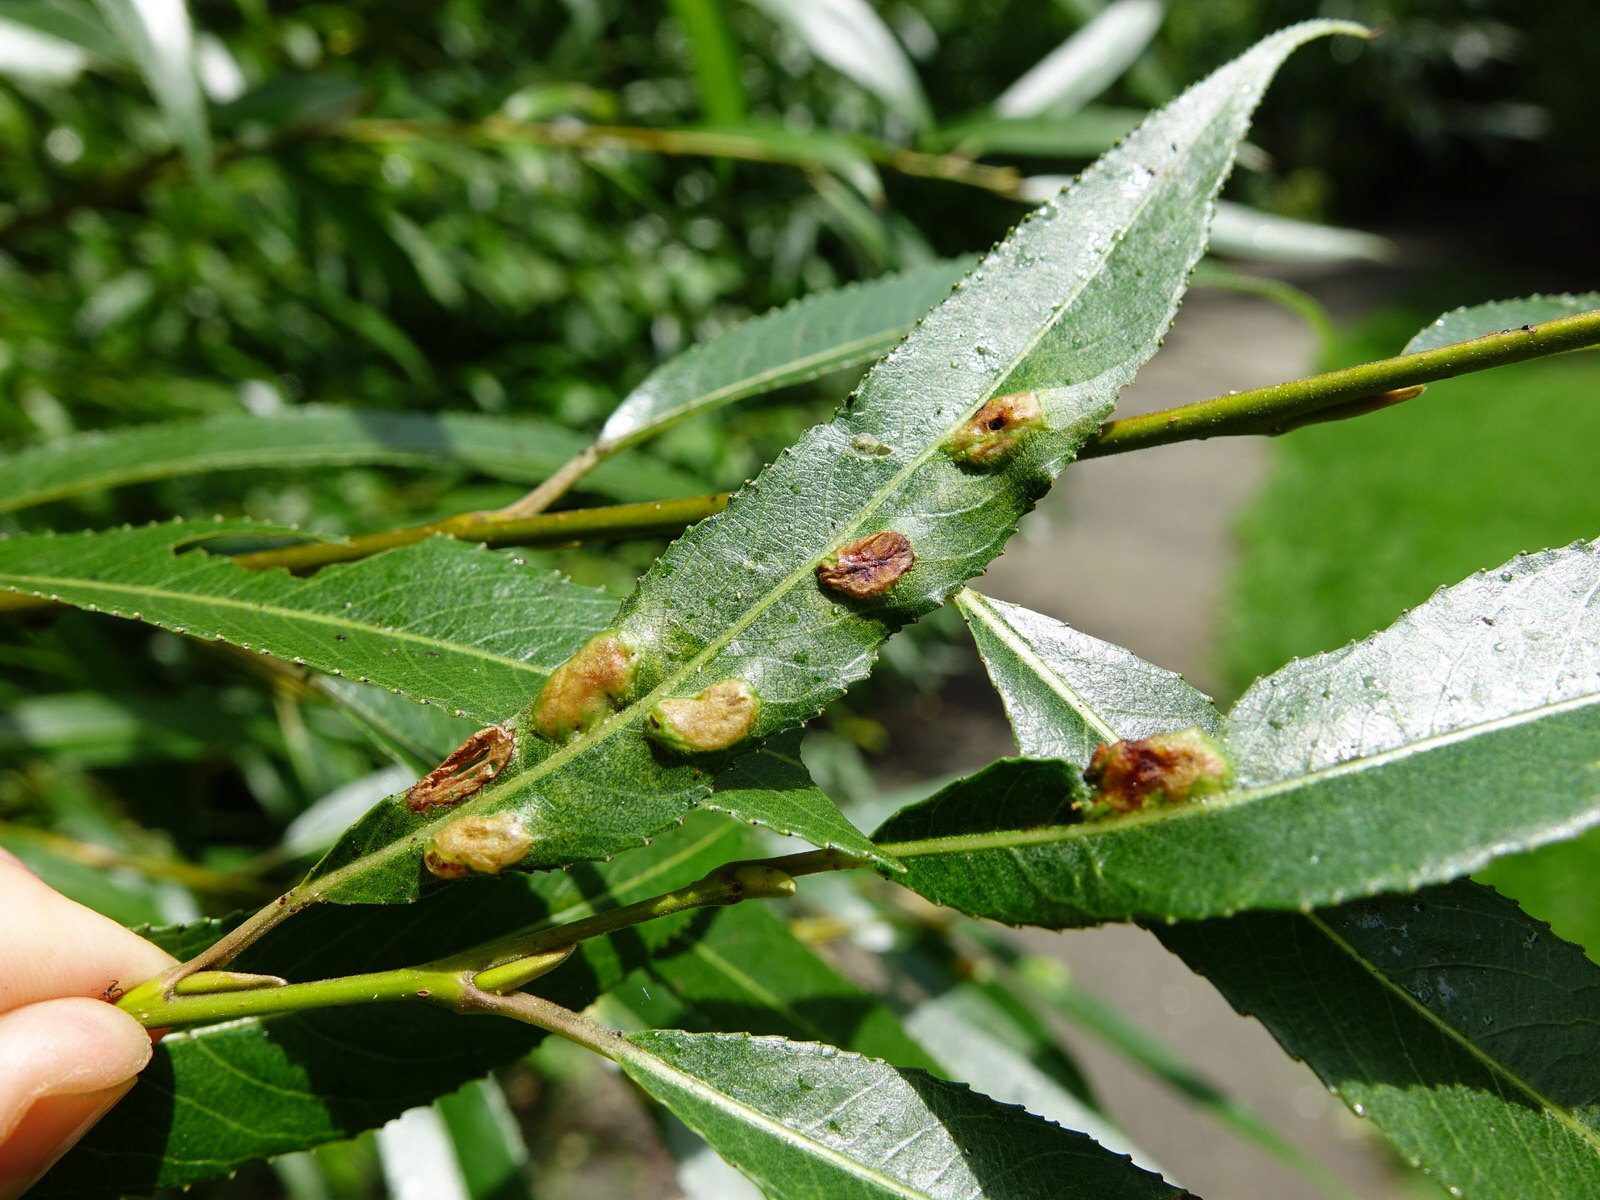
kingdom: Animalia
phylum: Arthropoda
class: Insecta
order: Hymenoptera
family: Tenthredinidae
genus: Pontania
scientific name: Pontania proxima
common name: Common sawfly
